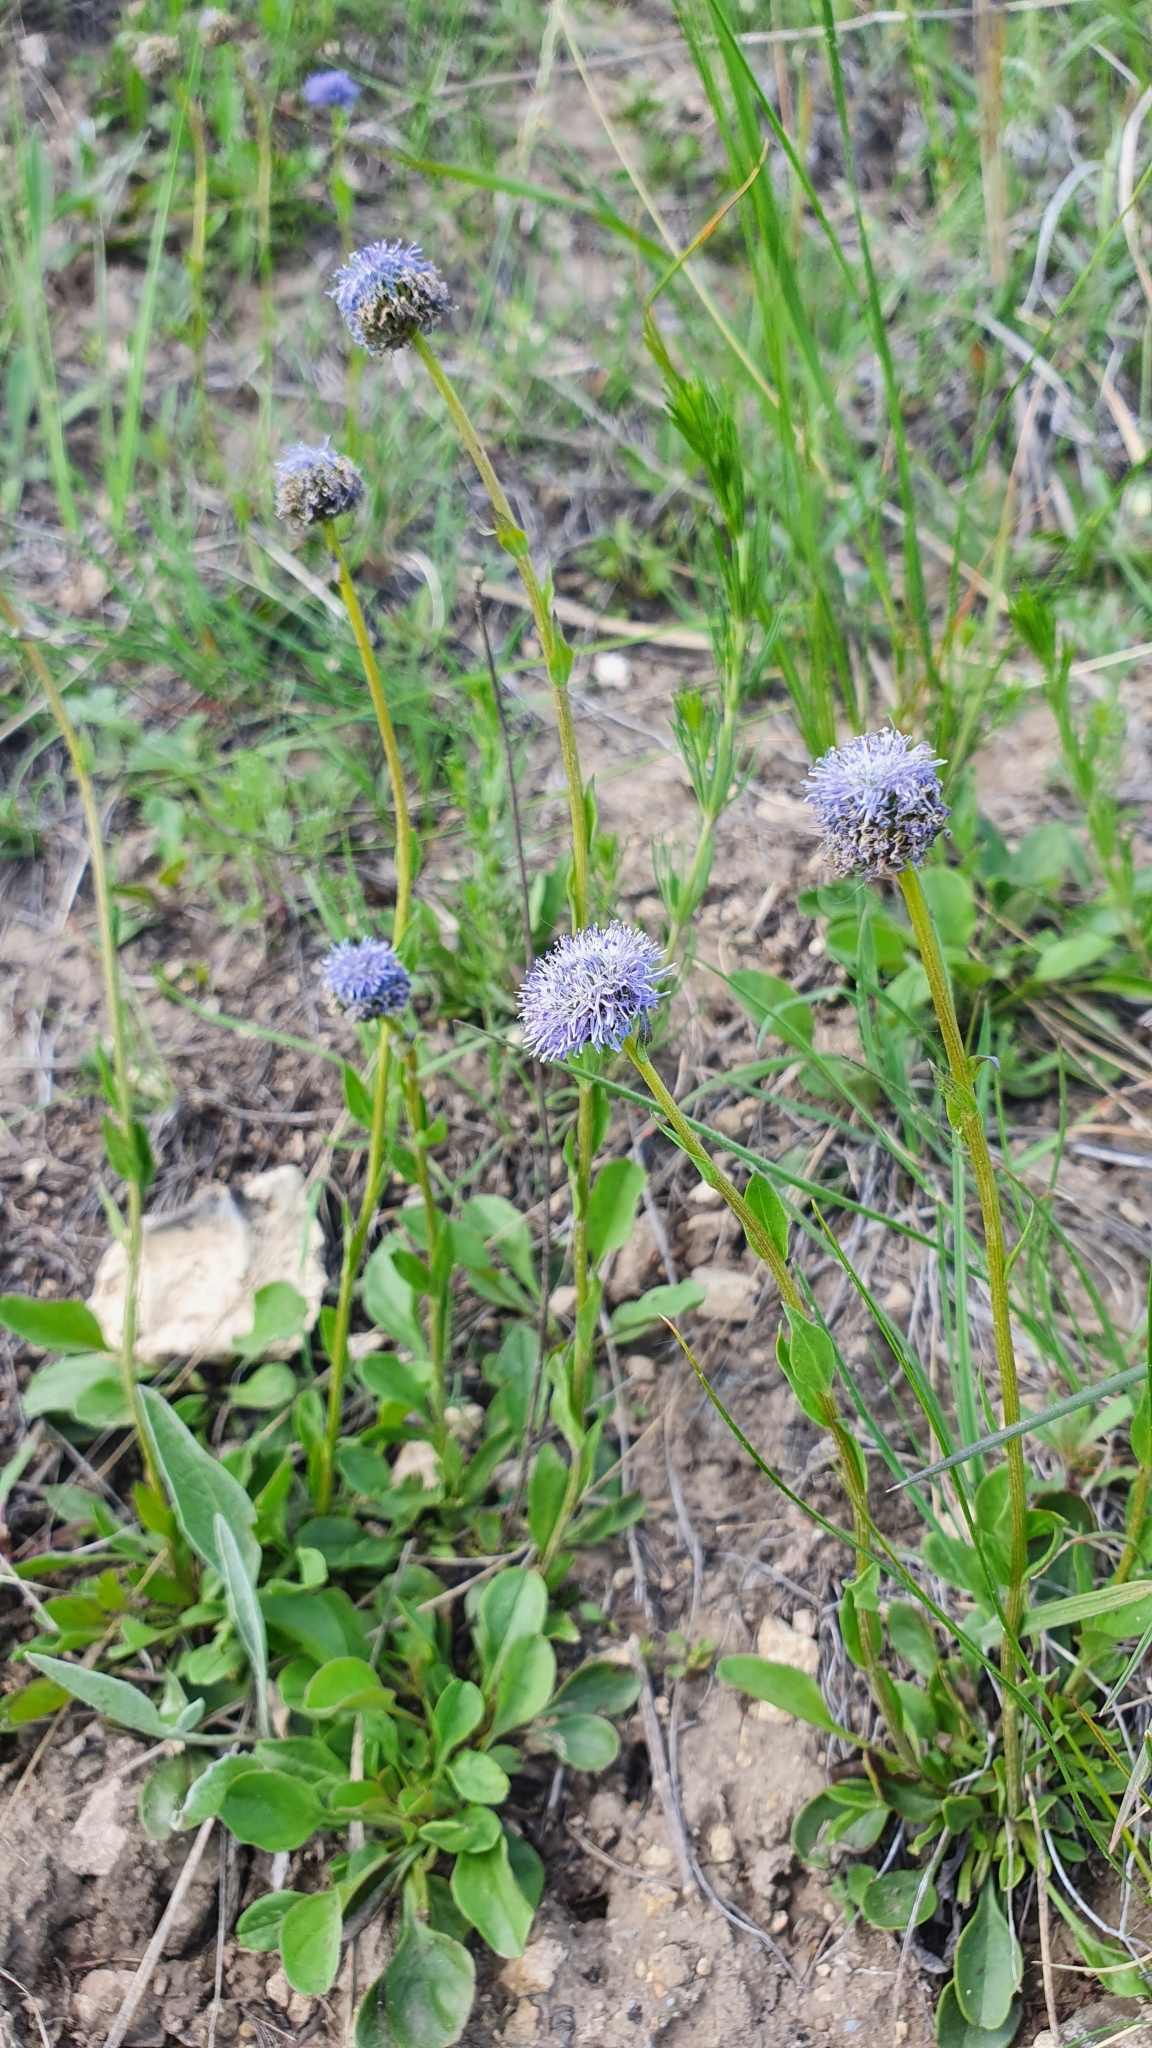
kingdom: Plantae
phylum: Tracheophyta
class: Magnoliopsida
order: Lamiales
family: Plantaginaceae
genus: Globularia
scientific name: Globularia bisnagarica
